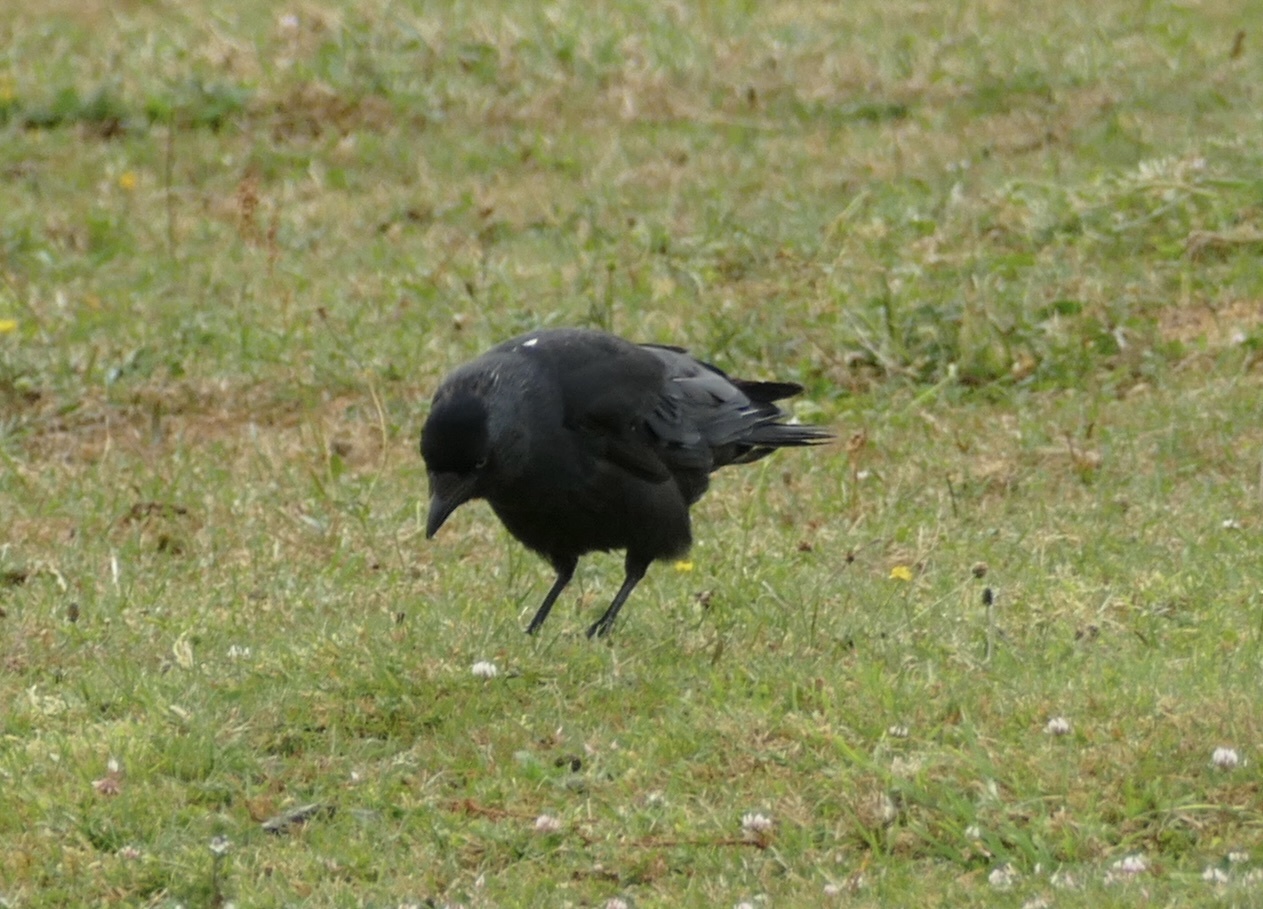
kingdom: Animalia
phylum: Chordata
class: Aves
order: Passeriformes
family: Corvidae
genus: Coloeus
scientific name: Coloeus monedula
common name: Western jackdaw
